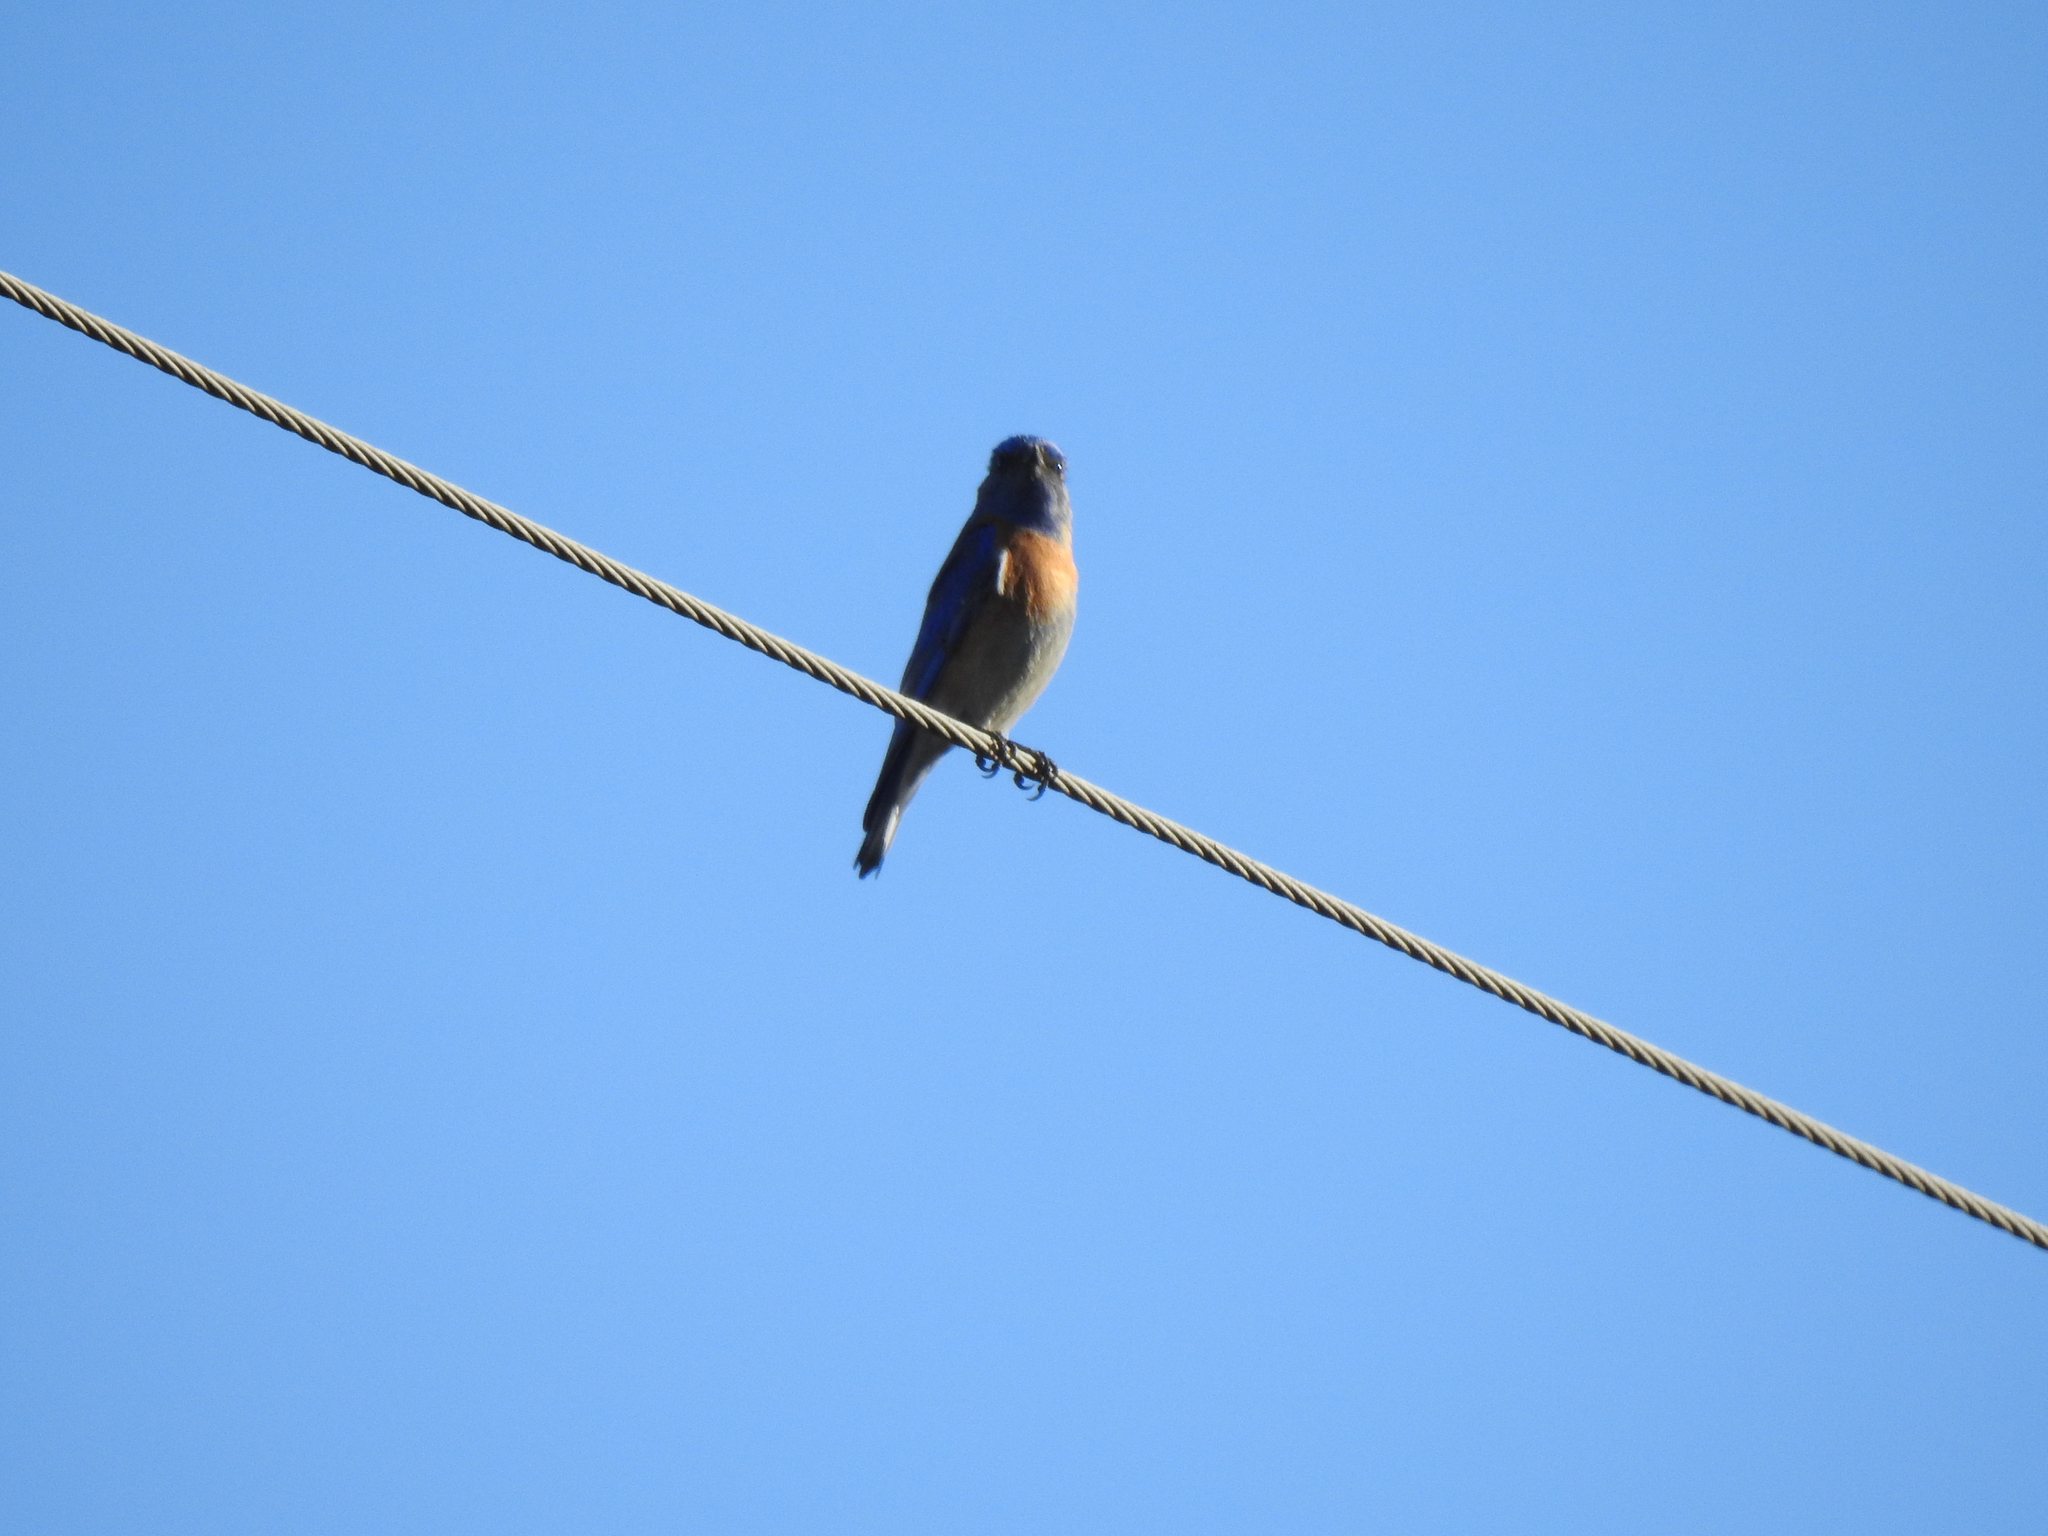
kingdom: Animalia
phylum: Chordata
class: Aves
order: Passeriformes
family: Turdidae
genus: Sialia
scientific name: Sialia mexicana
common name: Western bluebird
